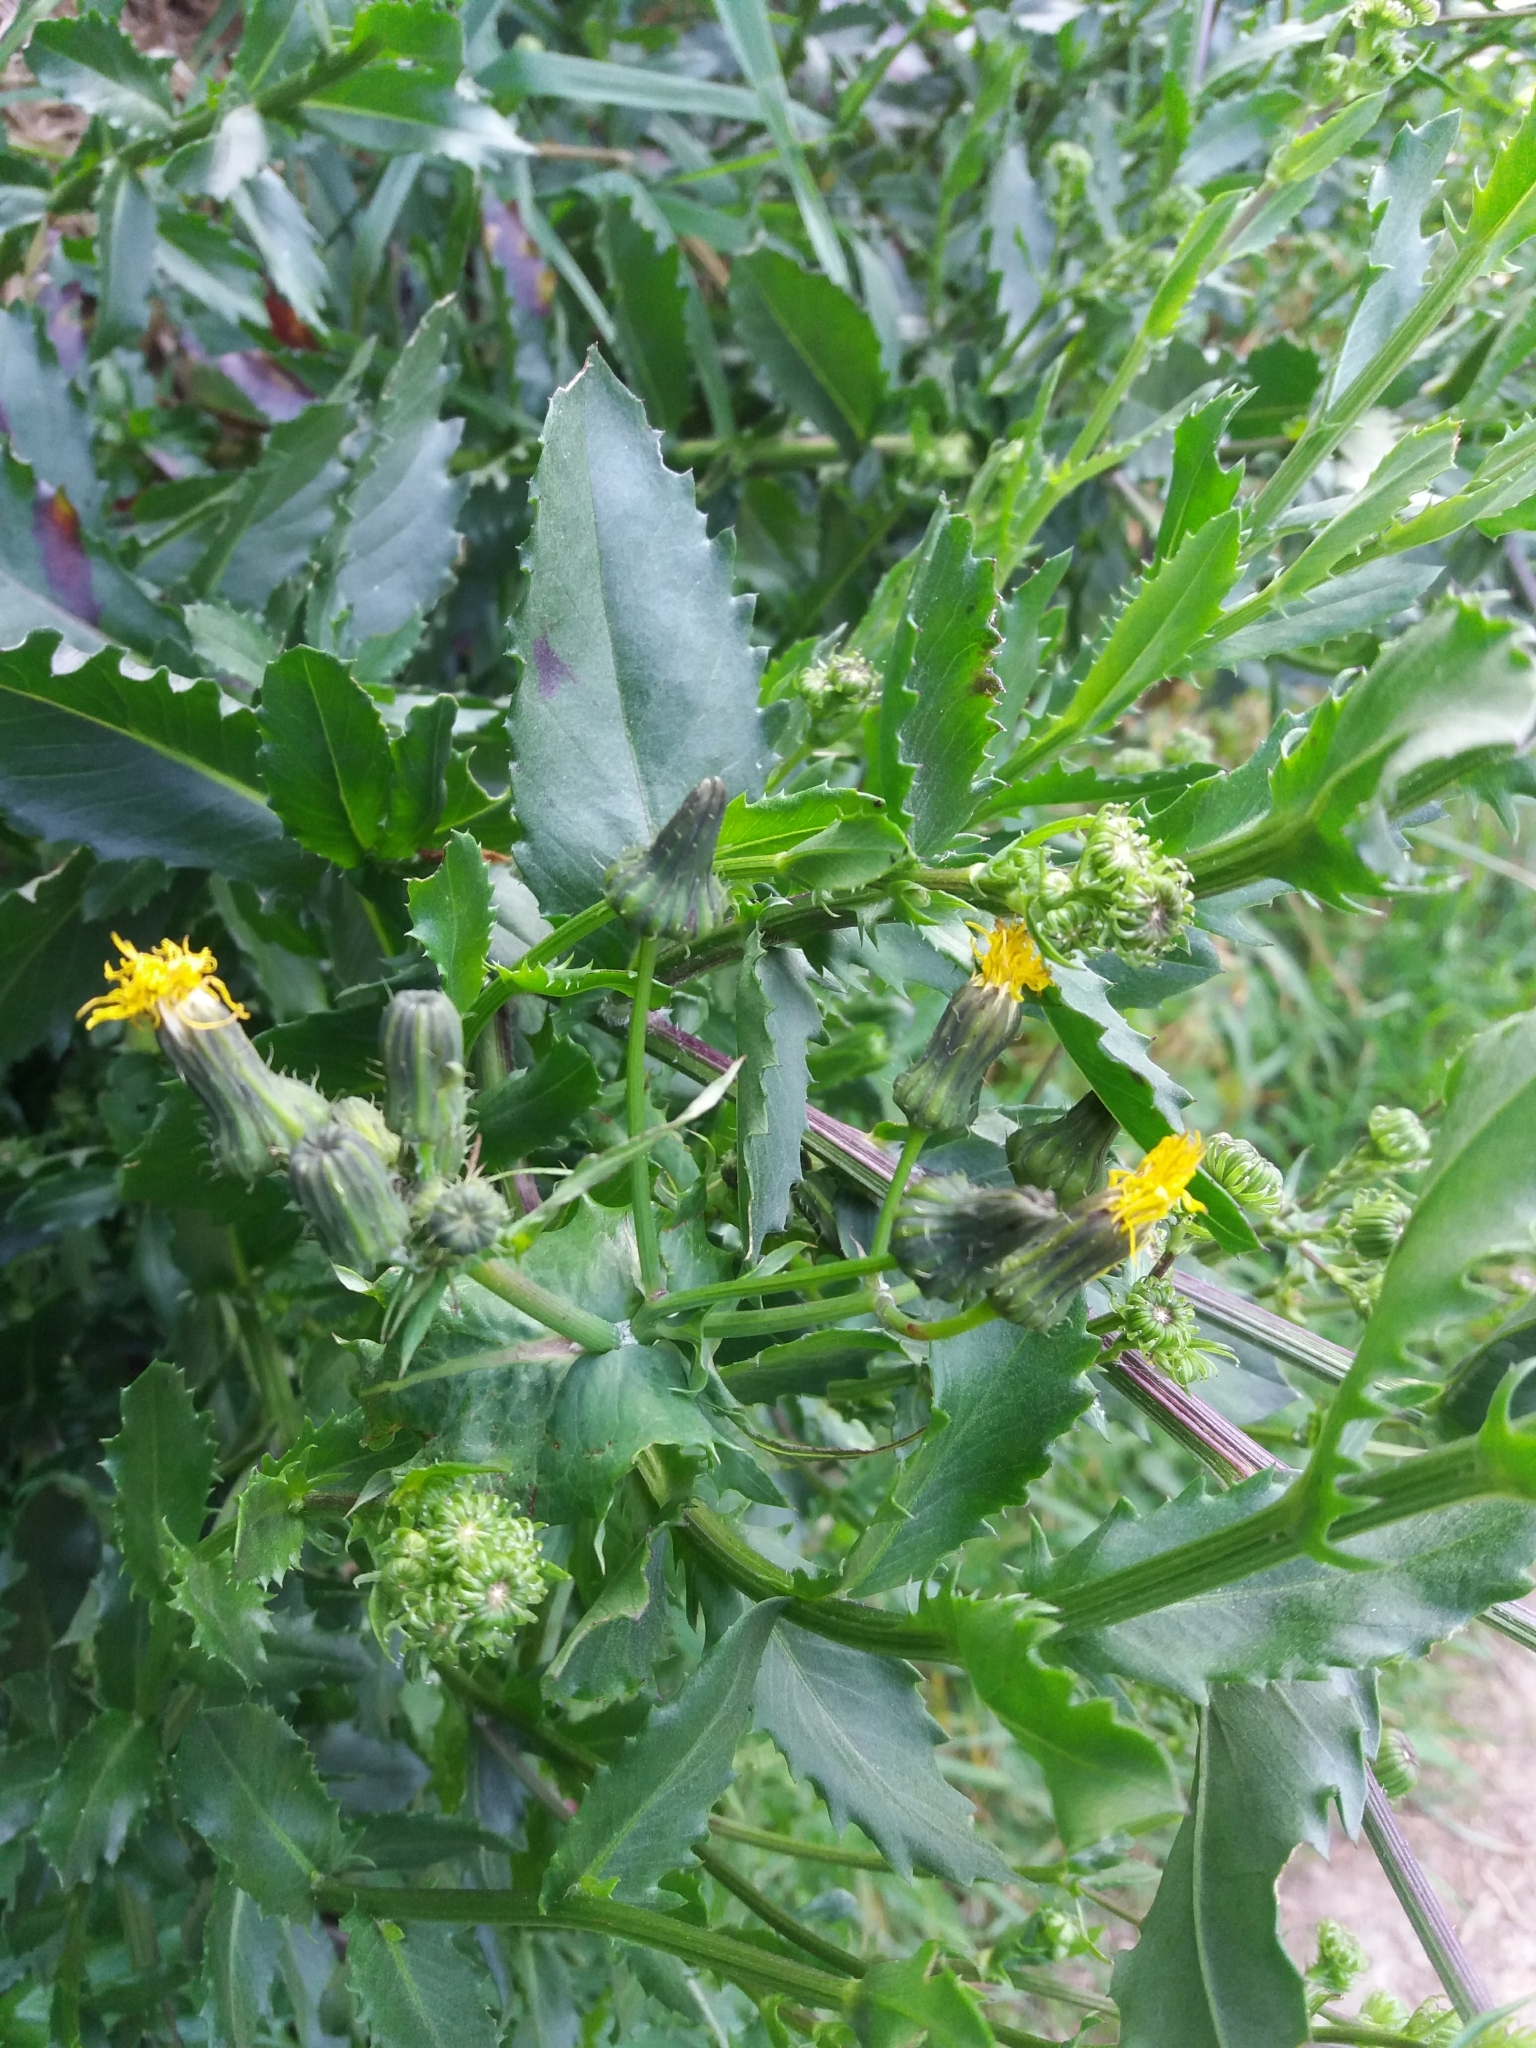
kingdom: Plantae
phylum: Tracheophyta
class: Magnoliopsida
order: Asterales
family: Asteraceae
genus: Sonchus
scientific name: Sonchus oleraceus
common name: Common sowthistle
